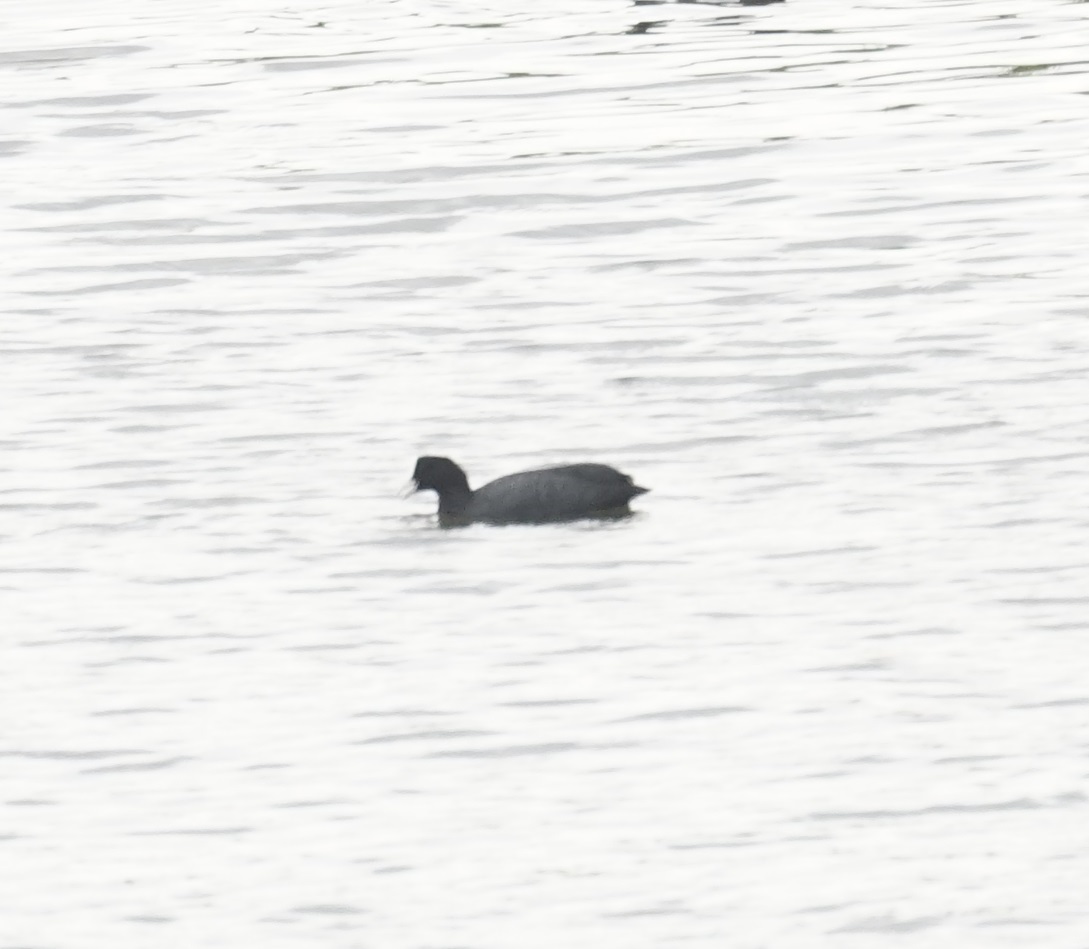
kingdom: Animalia
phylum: Chordata
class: Aves
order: Gruiformes
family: Rallidae
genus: Fulica
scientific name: Fulica atra
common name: Eurasian coot
